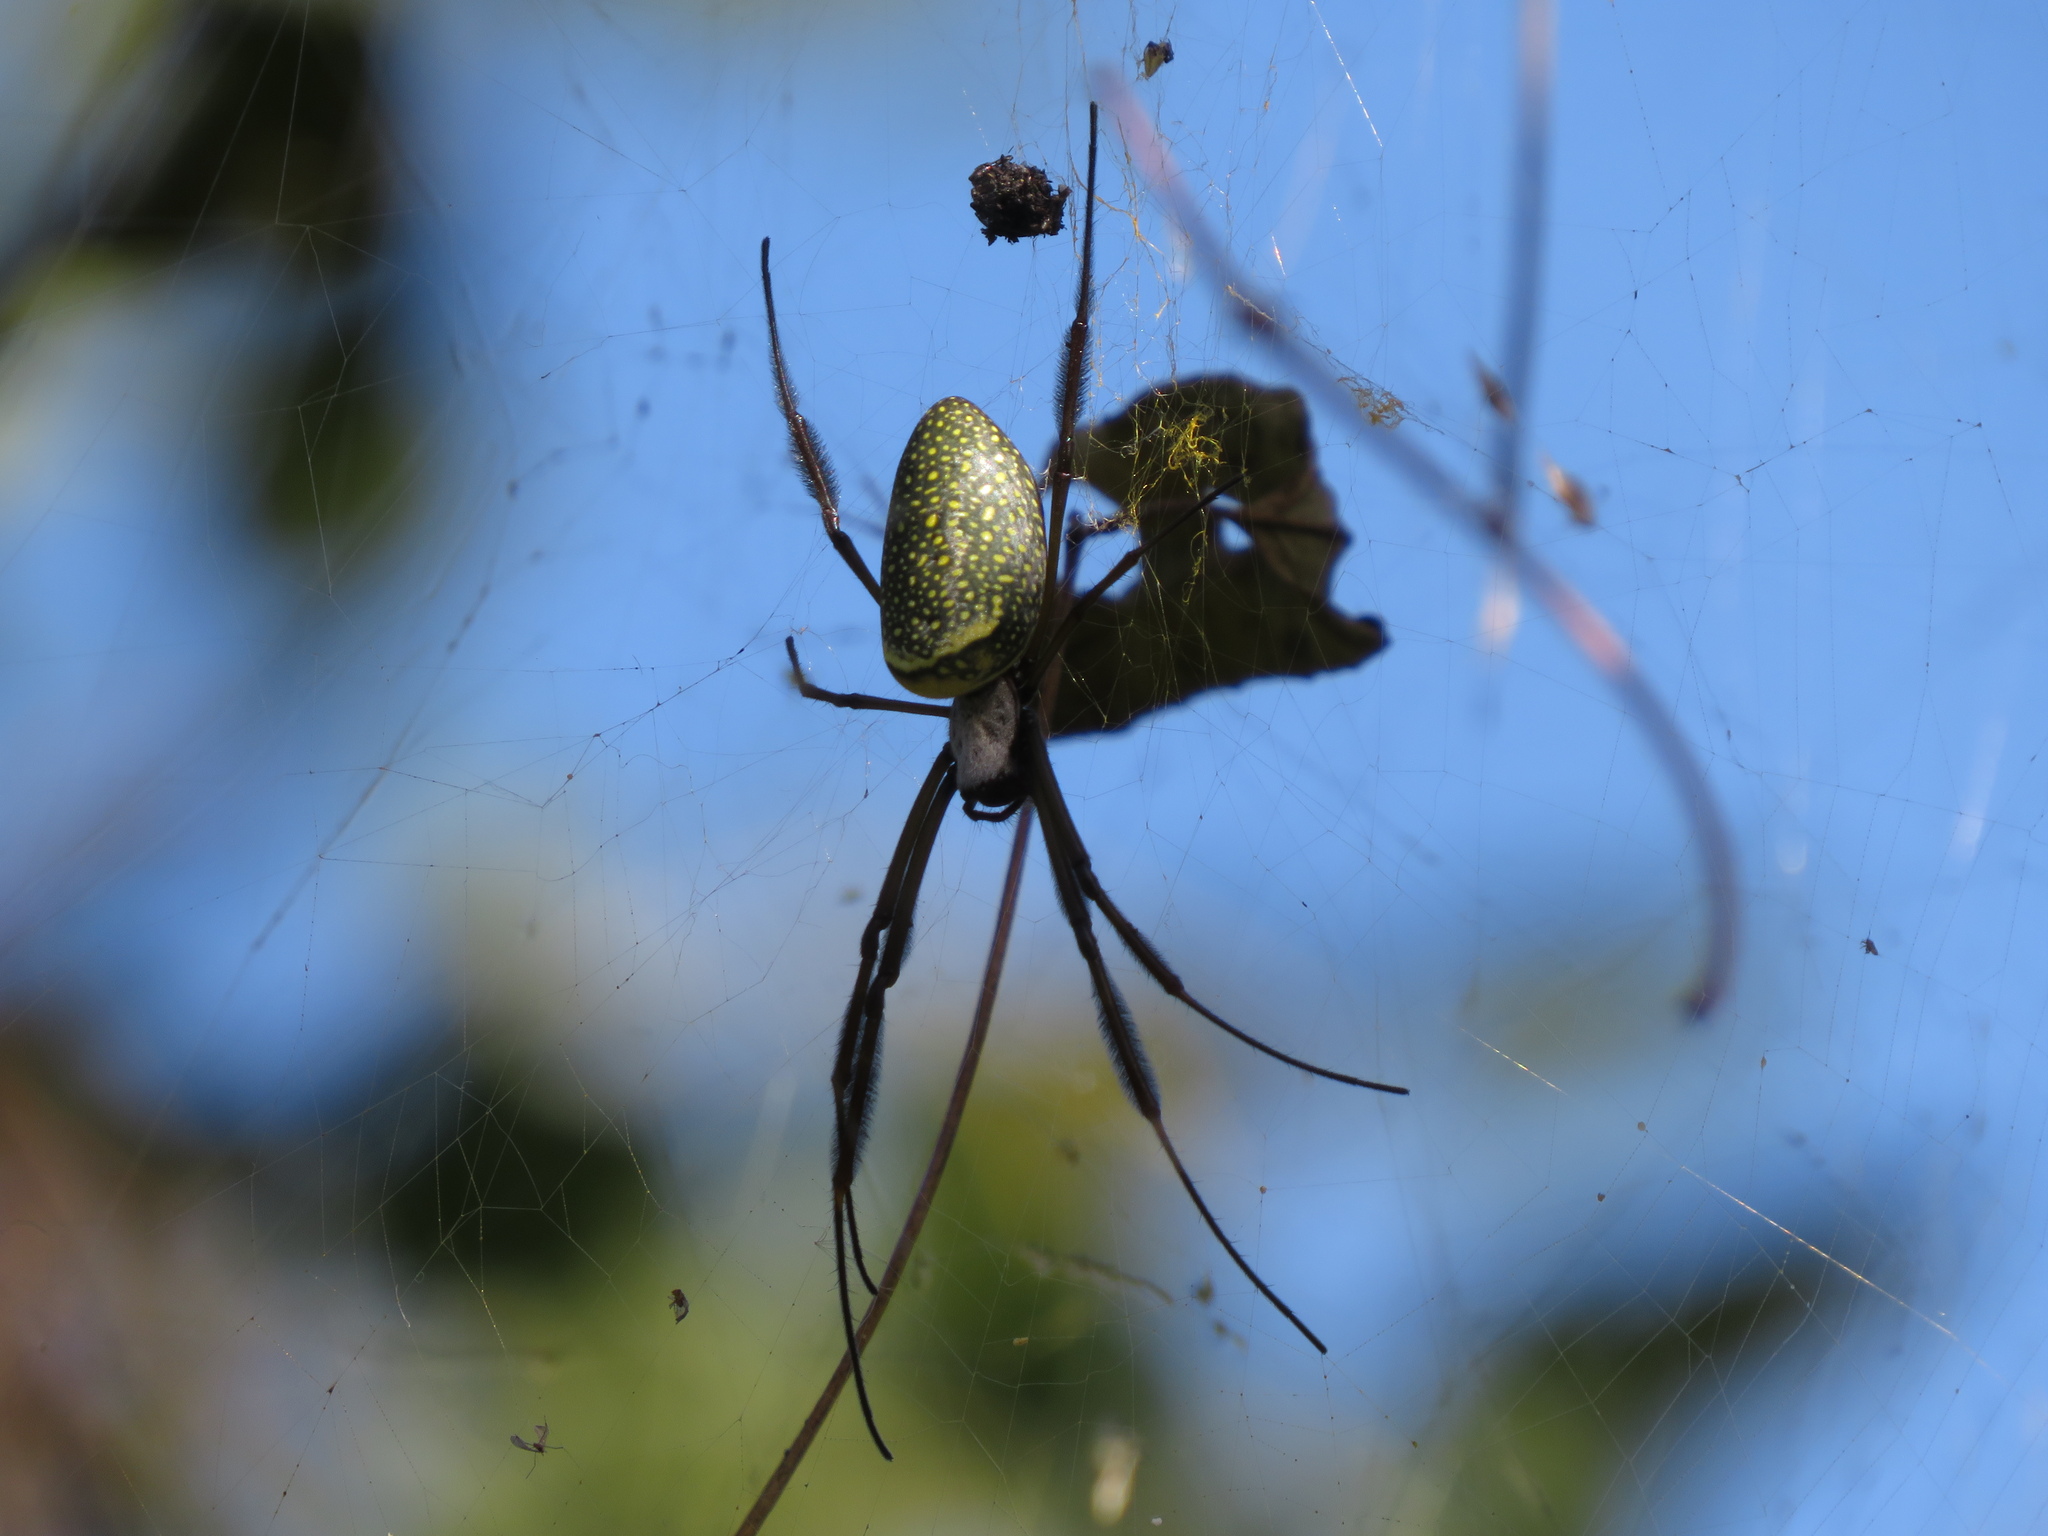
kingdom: Animalia
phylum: Arthropoda
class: Arachnida
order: Araneae
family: Araneidae
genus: Trichonephila
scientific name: Trichonephila clavipes
